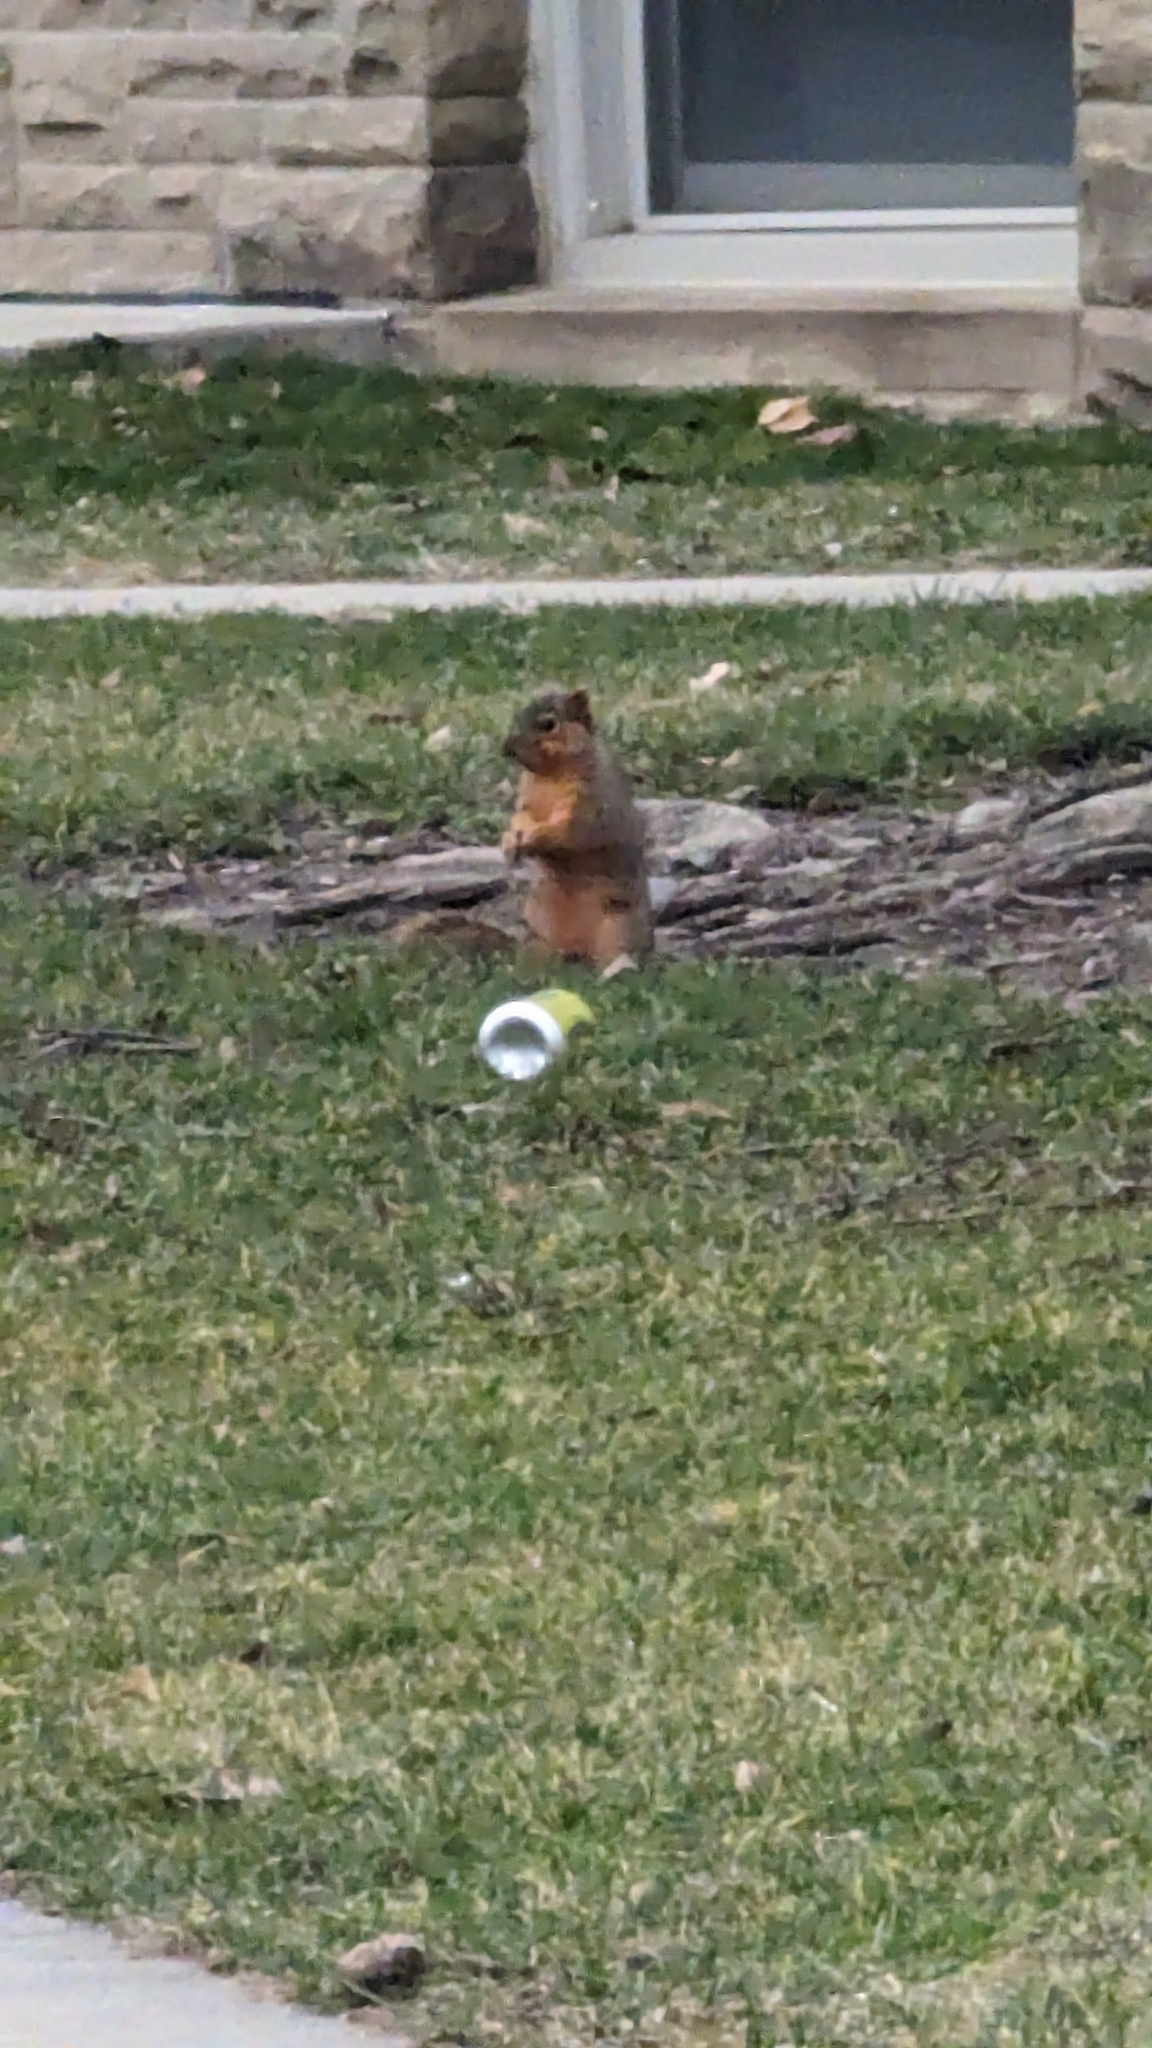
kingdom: Animalia
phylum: Chordata
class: Mammalia
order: Rodentia
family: Sciuridae
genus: Sciurus
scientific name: Sciurus niger
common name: Fox squirrel
